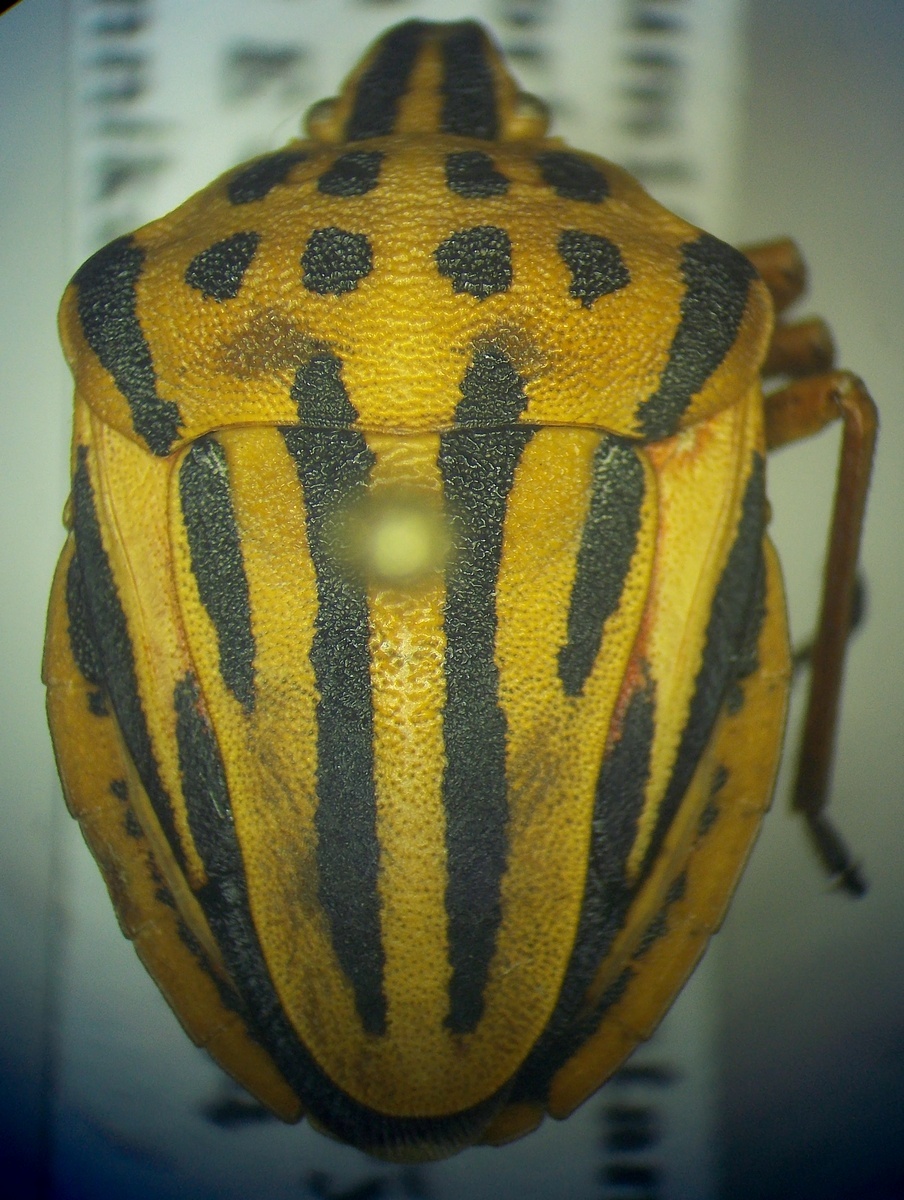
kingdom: Animalia
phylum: Arthropoda
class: Insecta
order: Hemiptera
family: Pentatomidae
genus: Graphosoma
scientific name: Graphosoma semipunctatum
